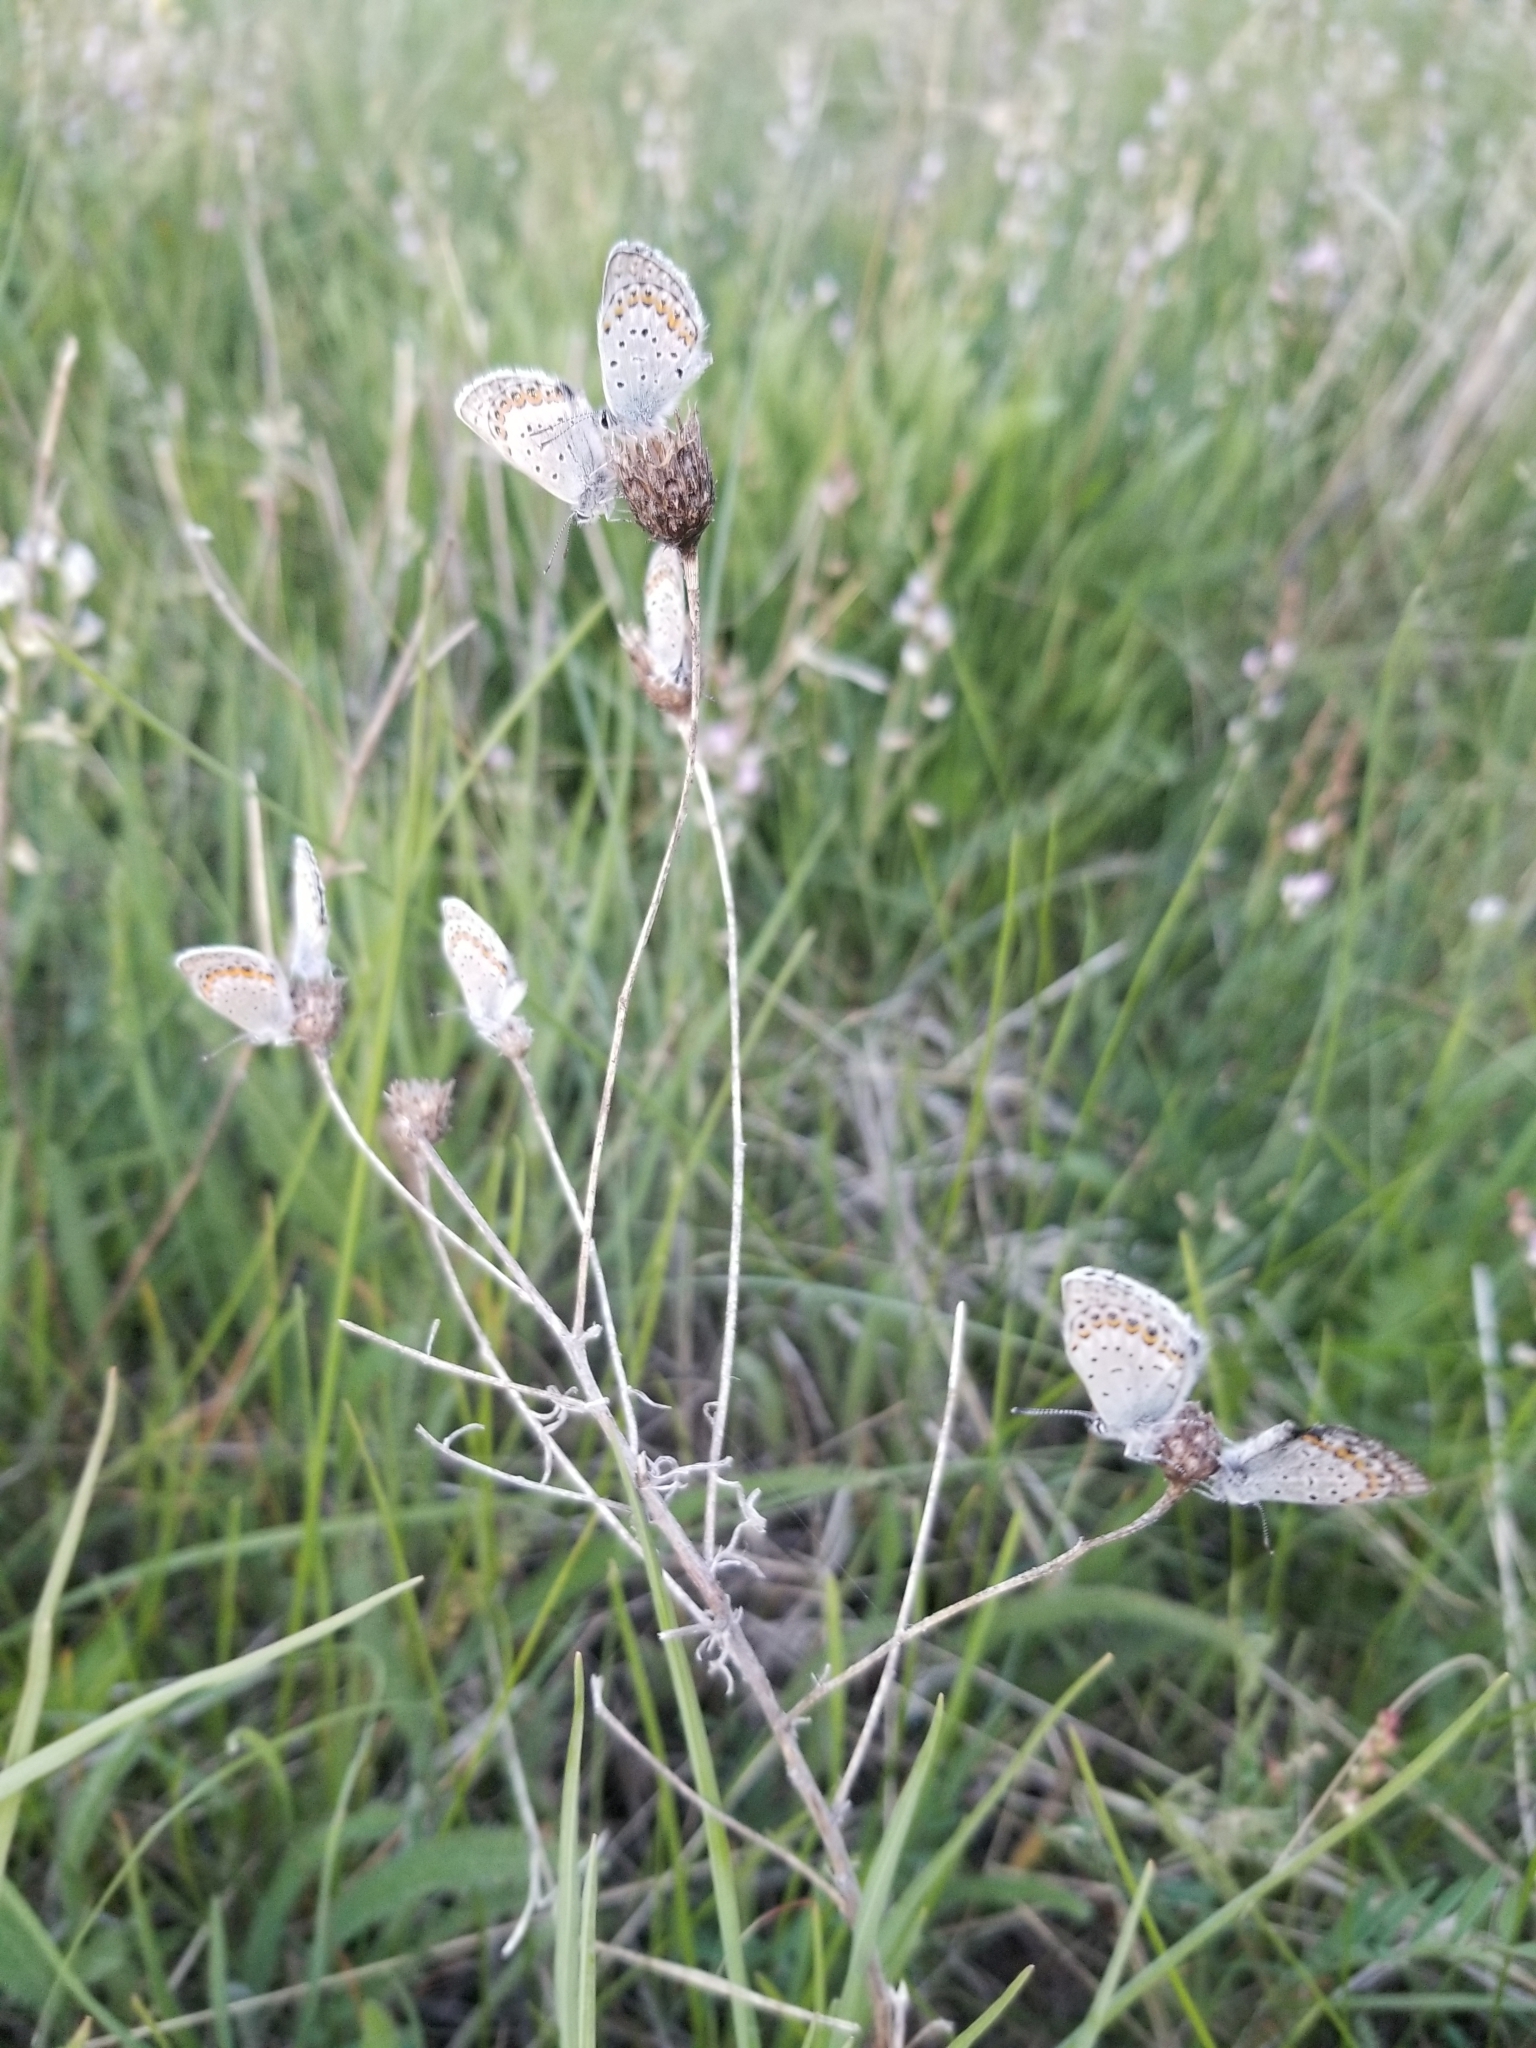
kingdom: Animalia
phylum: Arthropoda
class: Insecta
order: Lepidoptera
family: Lycaenidae
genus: Lycaeides
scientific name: Lycaeides melissa
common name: Melissa blue
